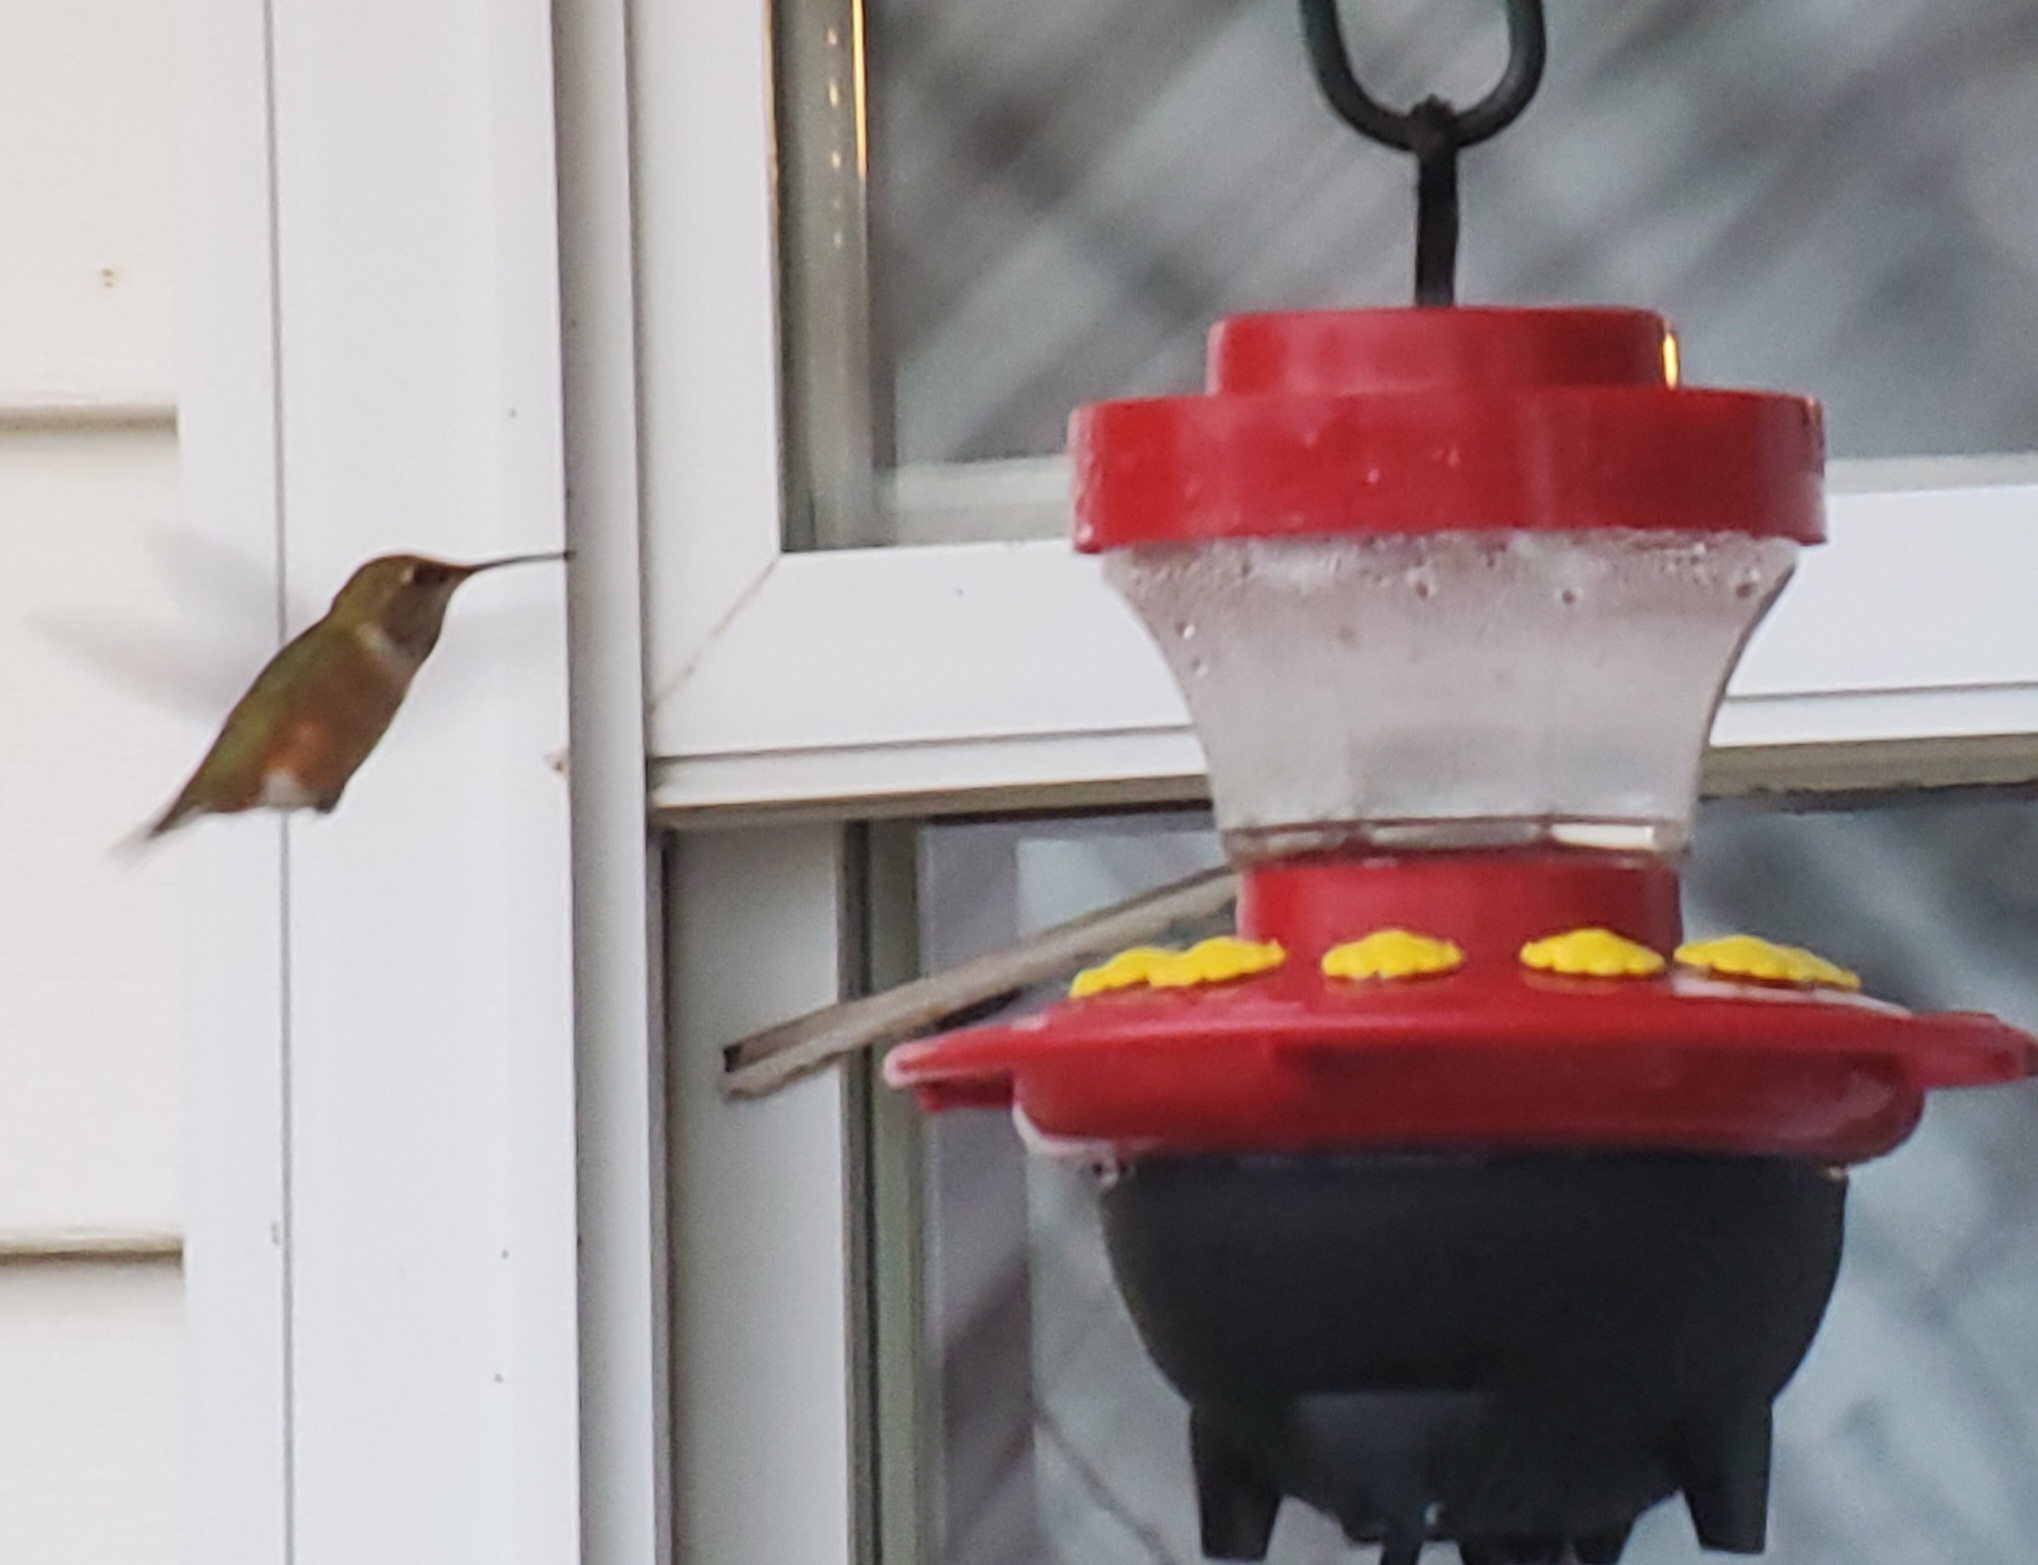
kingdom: Animalia
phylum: Chordata
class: Aves
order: Apodiformes
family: Trochilidae
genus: Selasphorus
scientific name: Selasphorus rufus
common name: Rufous hummingbird
